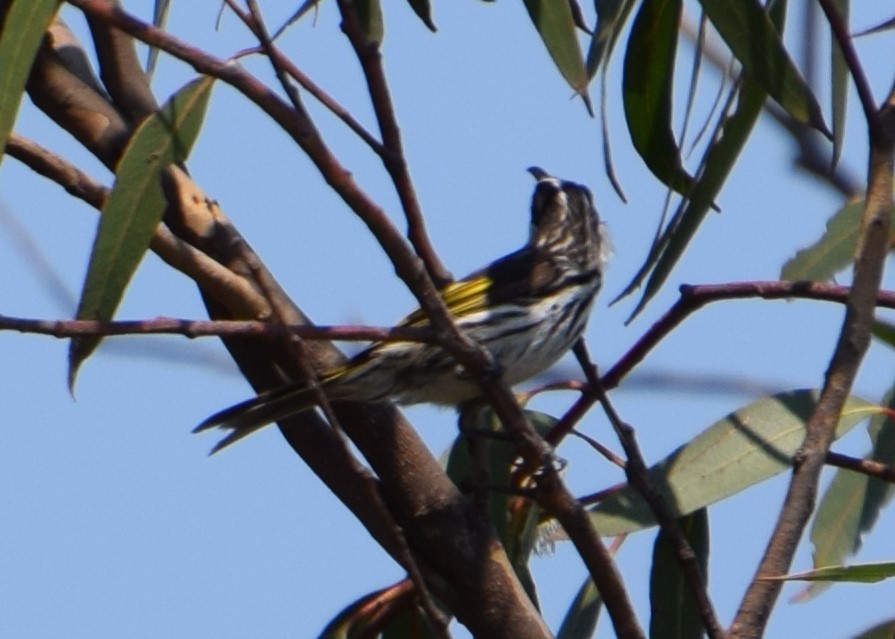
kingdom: Animalia
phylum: Chordata
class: Aves
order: Passeriformes
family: Meliphagidae
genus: Phylidonyris
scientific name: Phylidonyris niger
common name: White-cheeked honeyeater
